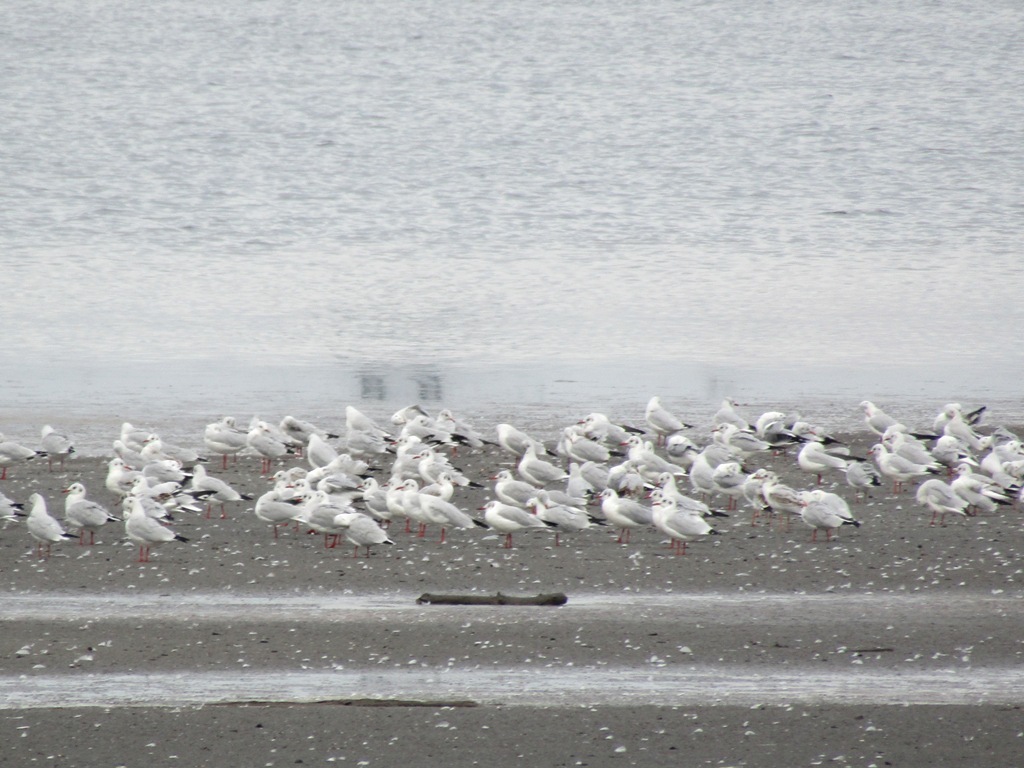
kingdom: Animalia
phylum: Chordata
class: Aves
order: Charadriiformes
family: Laridae
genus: Chroicocephalus
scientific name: Chroicocephalus ridibundus
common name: Black-headed gull
